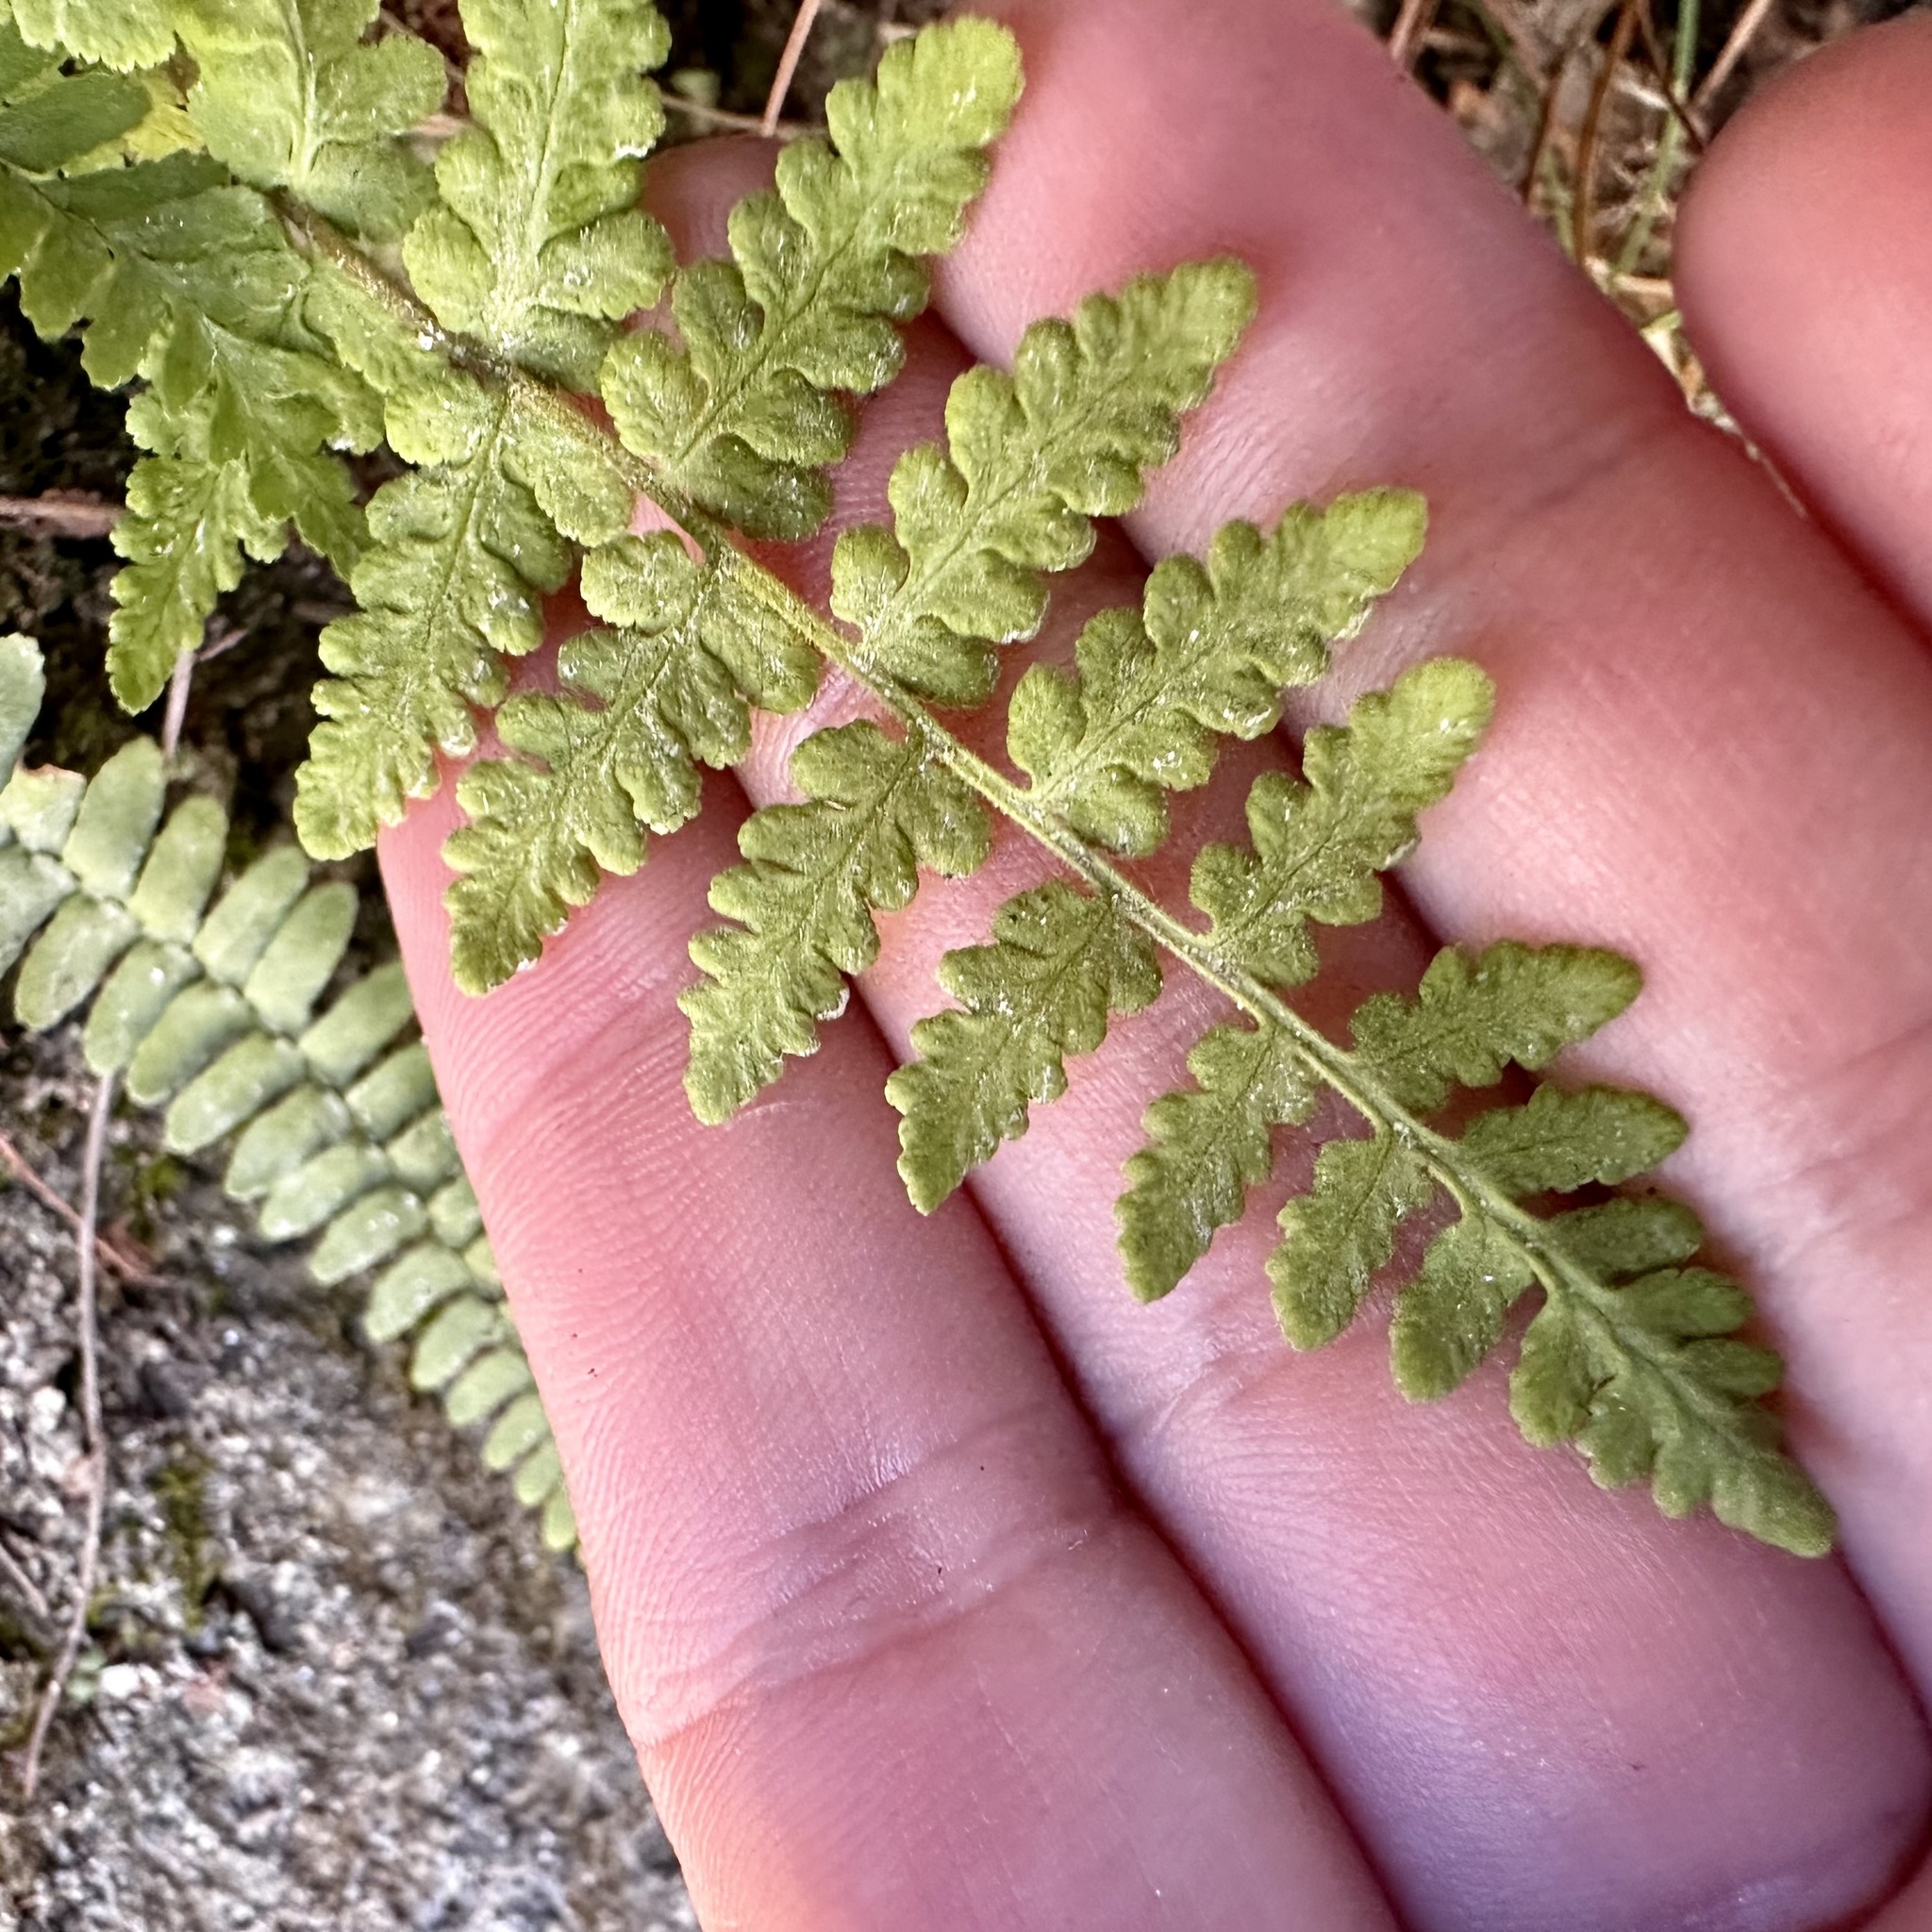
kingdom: Plantae
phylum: Tracheophyta
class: Polypodiopsida
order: Polypodiales
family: Woodsiaceae
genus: Physematium
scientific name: Physematium obtusum
